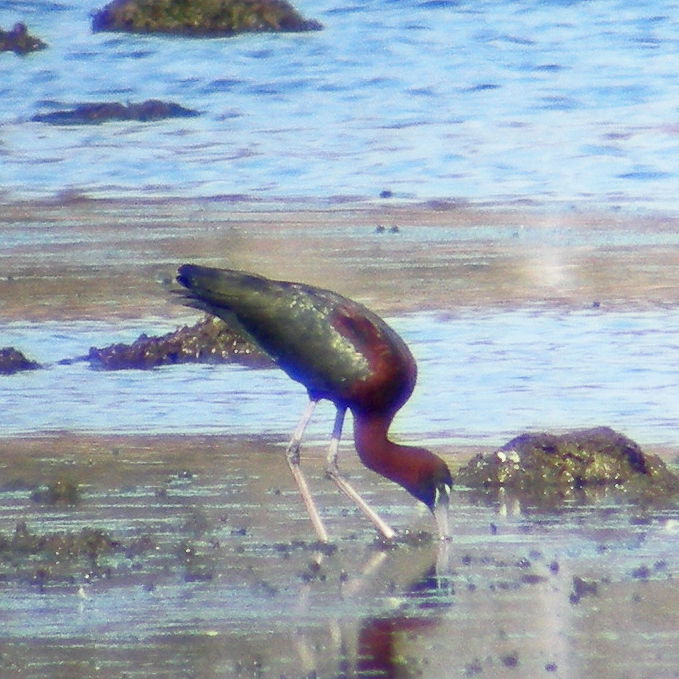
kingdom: Animalia
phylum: Chordata
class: Aves
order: Pelecaniformes
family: Threskiornithidae
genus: Plegadis
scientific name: Plegadis falcinellus
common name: Glossy ibis
